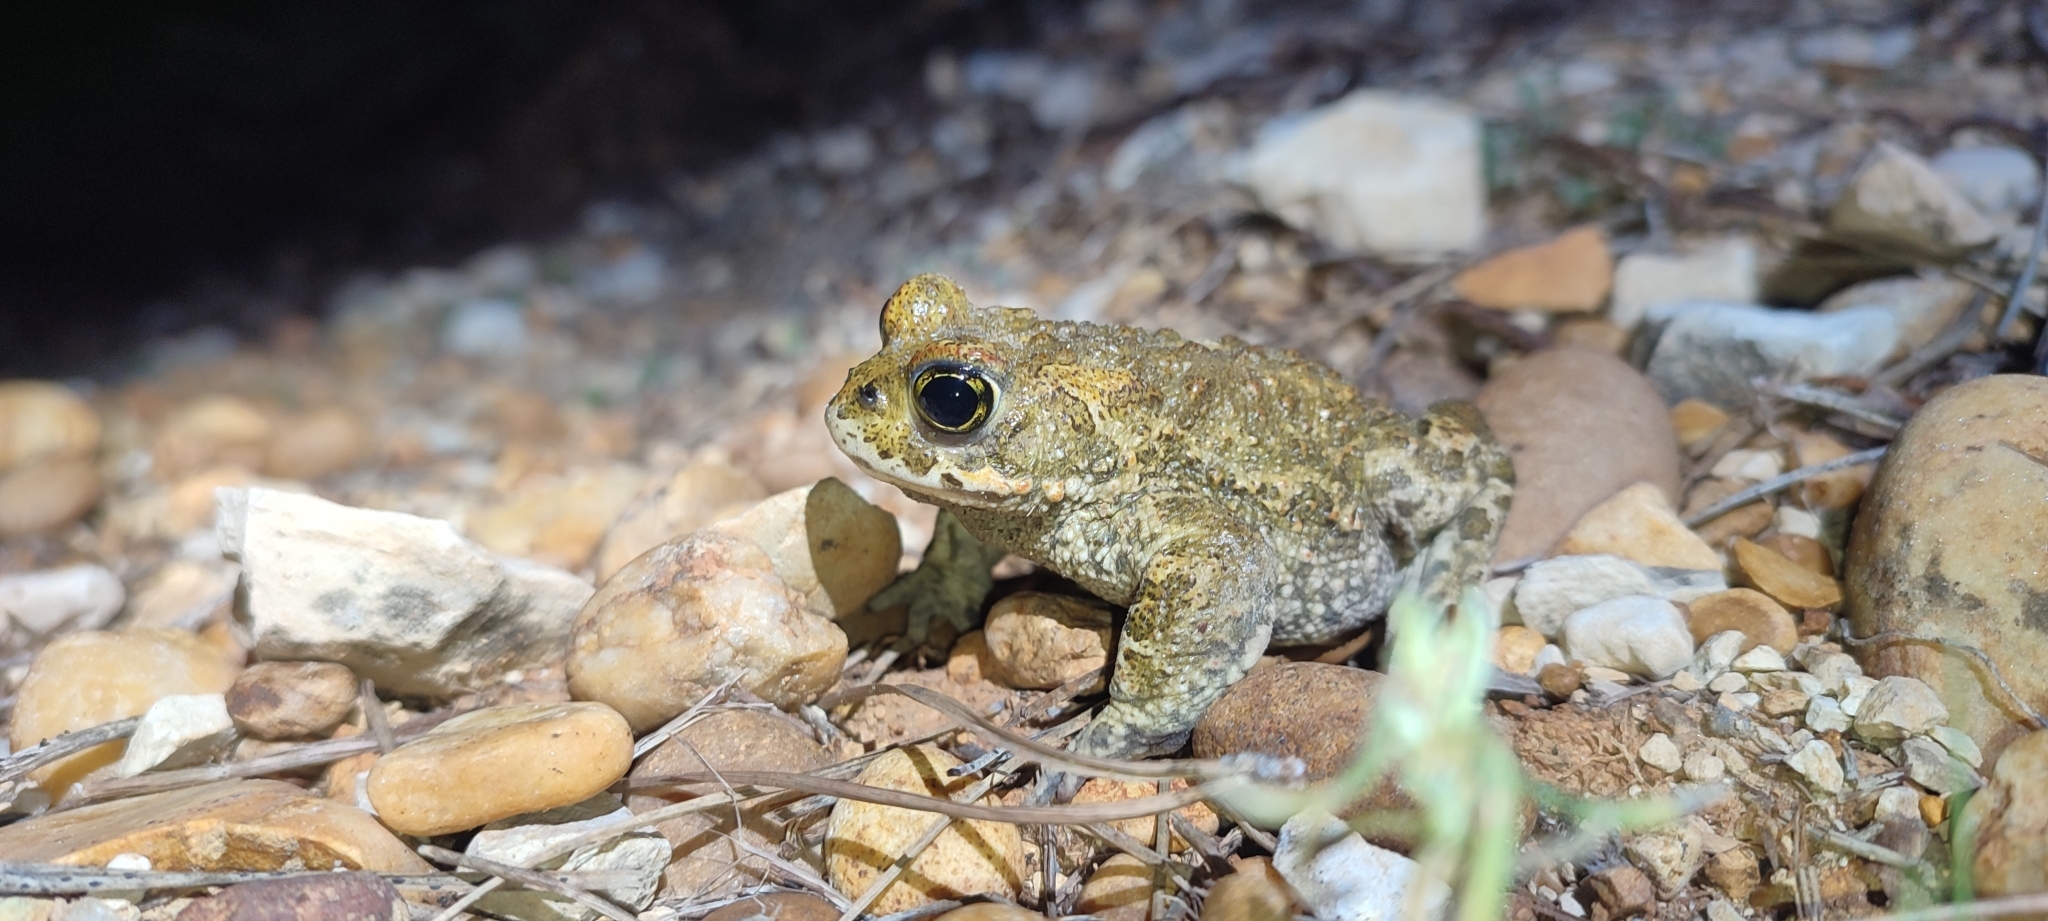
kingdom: Animalia
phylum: Chordata
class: Amphibia
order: Anura
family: Bufonidae
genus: Epidalea
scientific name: Epidalea calamita
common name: Natterjack toad
